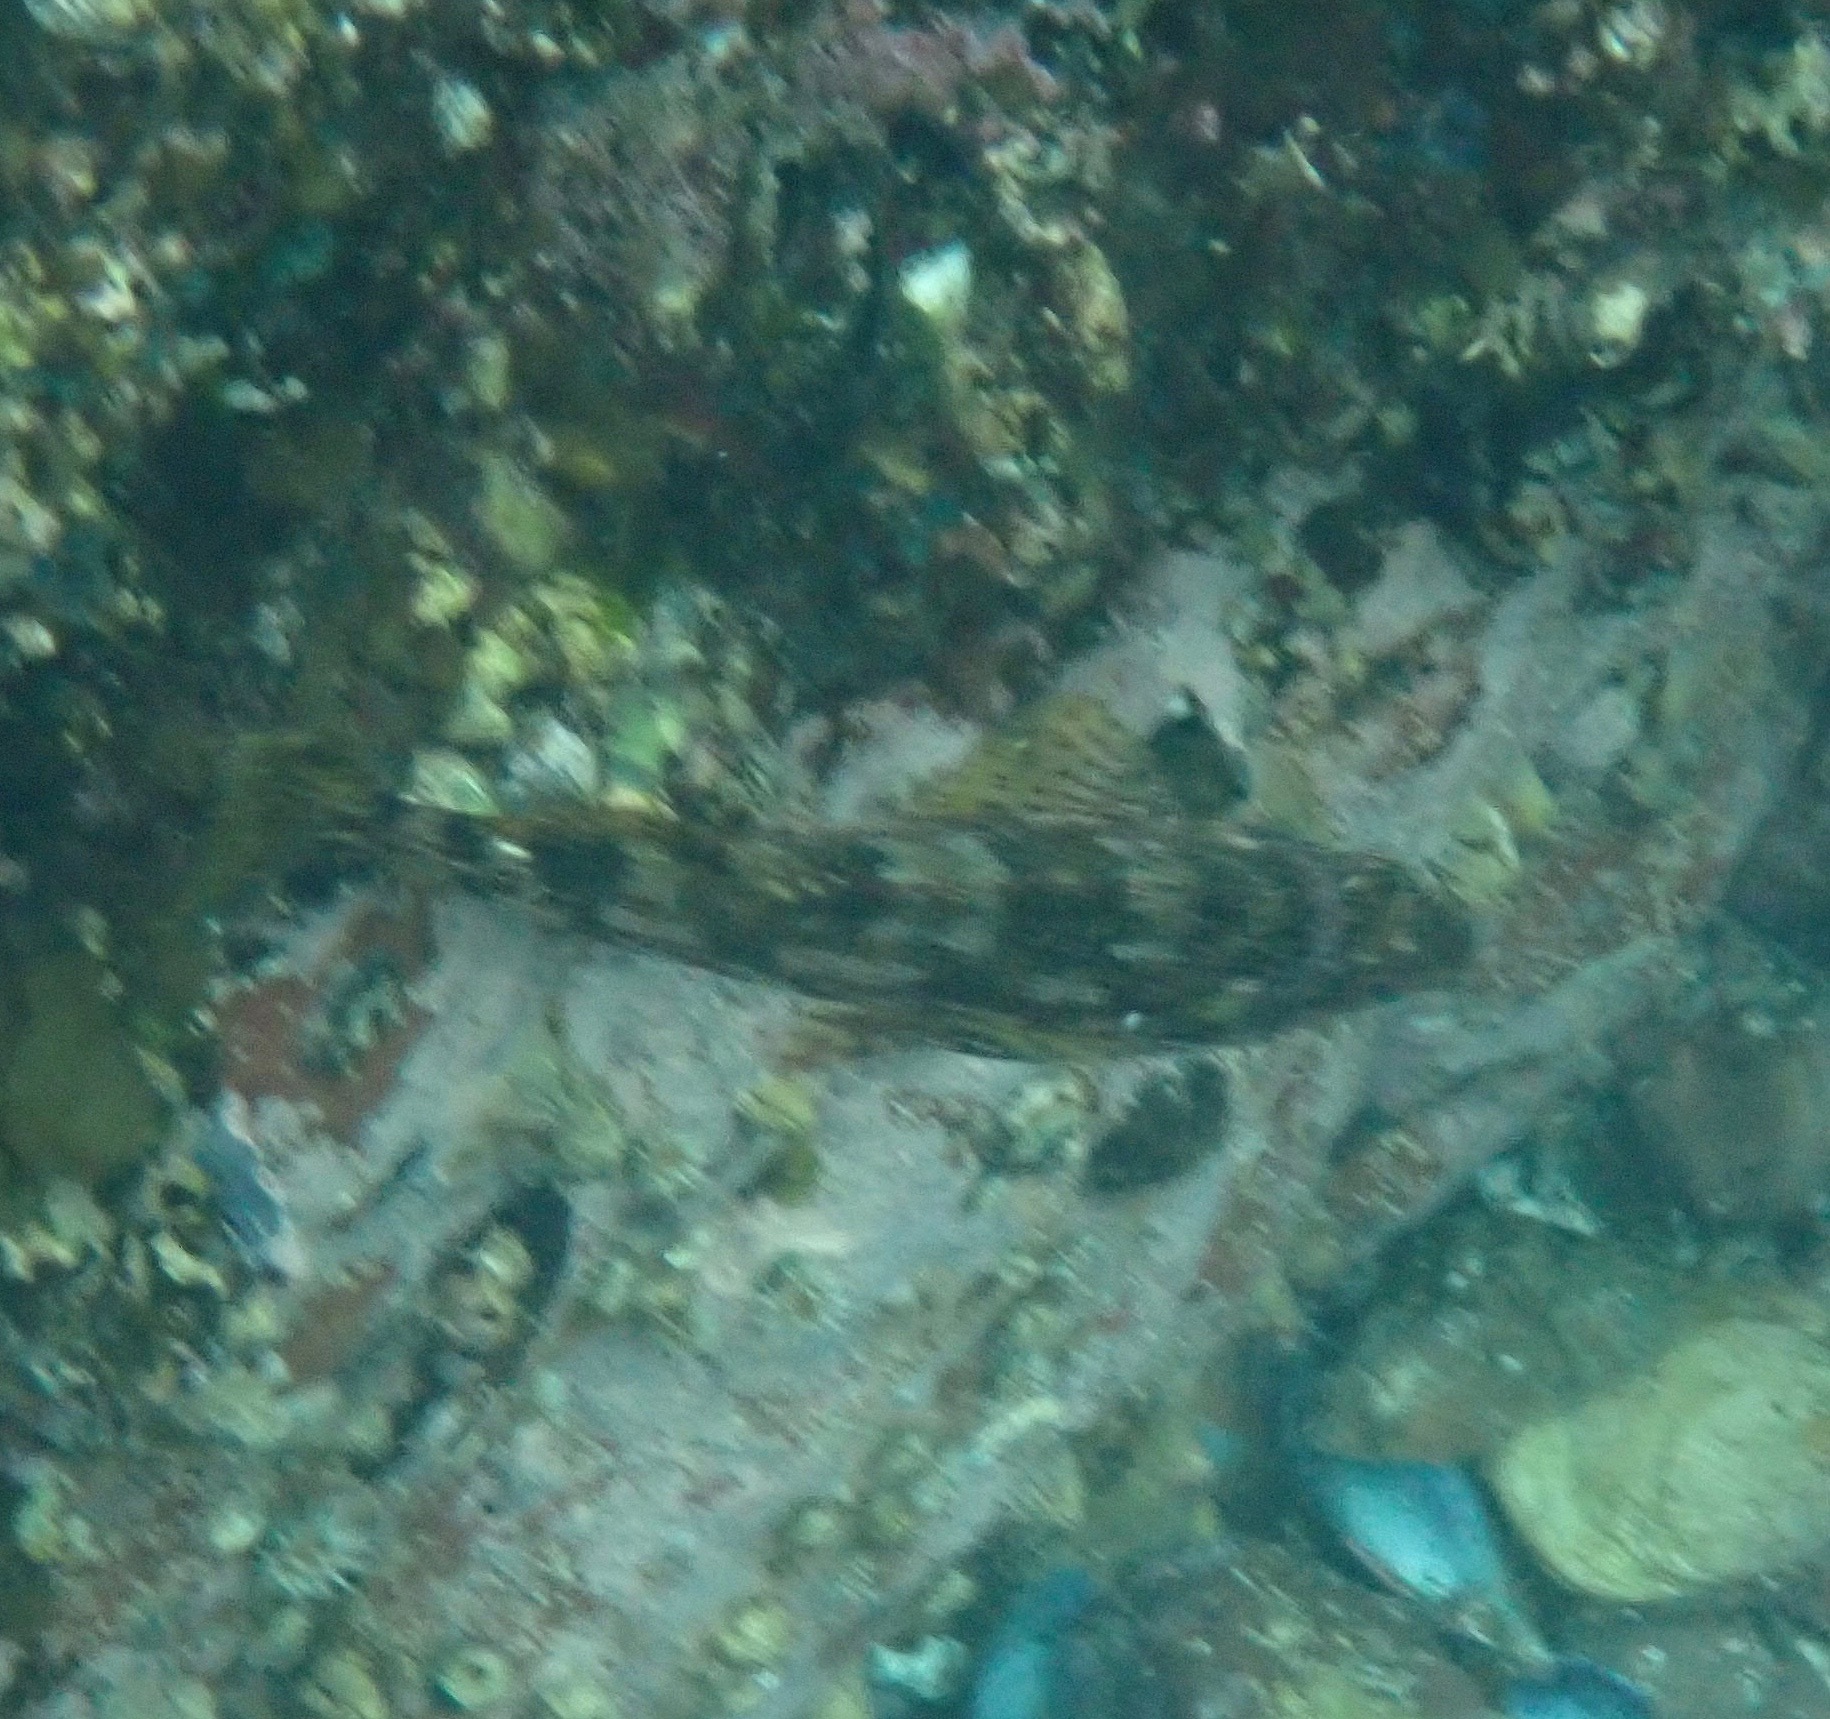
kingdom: Animalia
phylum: Chordata
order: Perciformes
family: Chironemidae
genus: Chironemus
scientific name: Chironemus marmoratus
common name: Kelpfish
